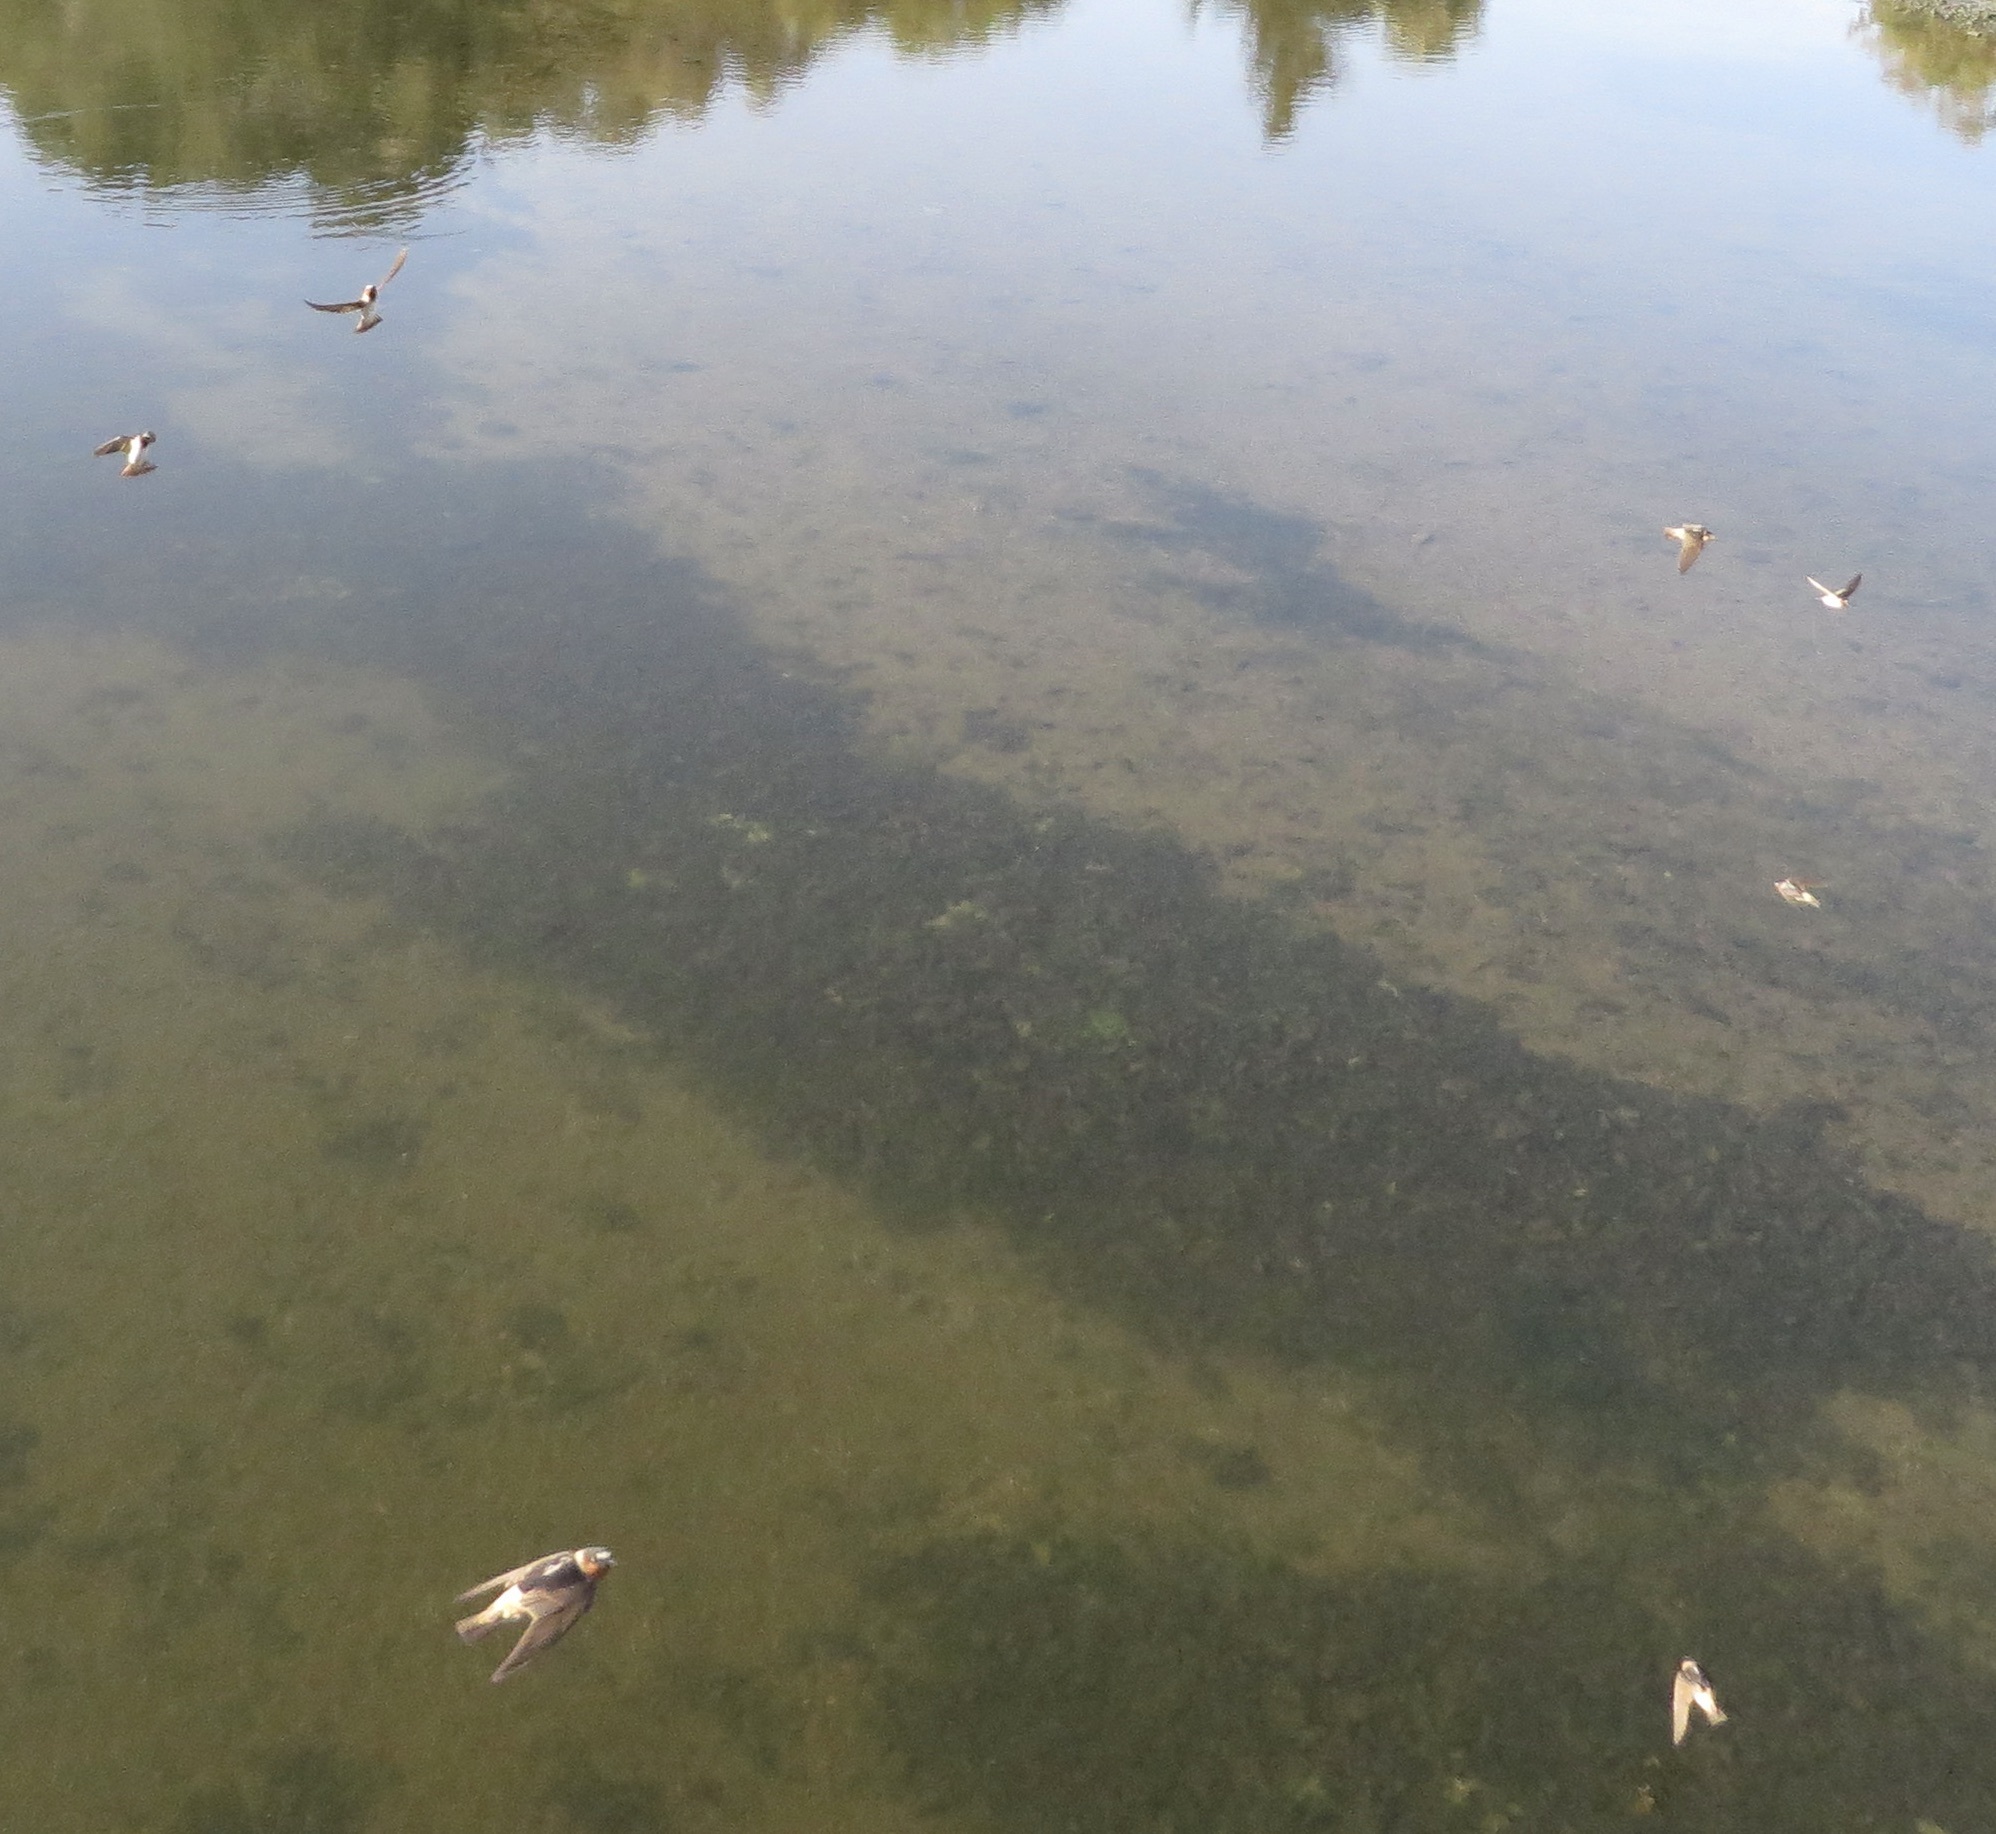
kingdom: Animalia
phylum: Chordata
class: Aves
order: Passeriformes
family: Hirundinidae
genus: Petrochelidon
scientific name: Petrochelidon pyrrhonota
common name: American cliff swallow
